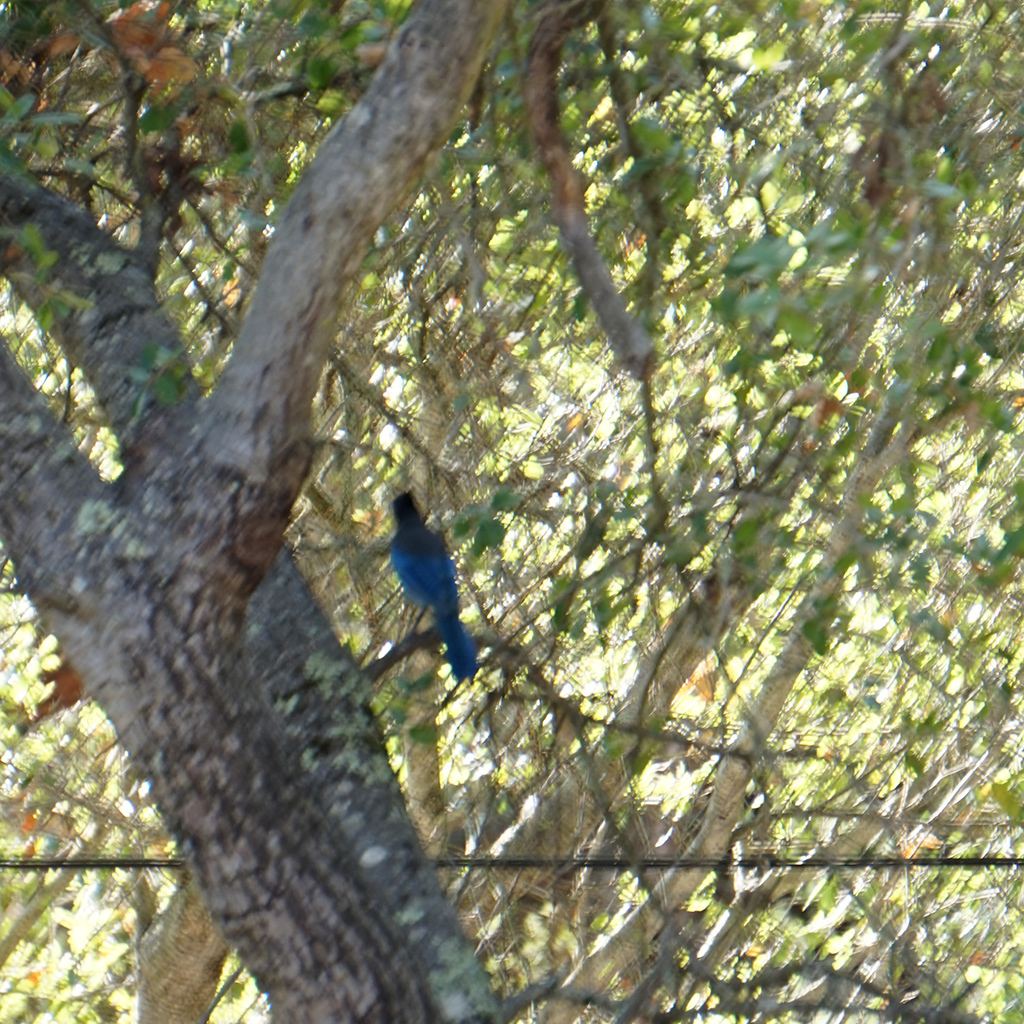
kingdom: Animalia
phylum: Chordata
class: Aves
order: Passeriformes
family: Corvidae
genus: Cyanocitta
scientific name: Cyanocitta stelleri
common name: Steller's jay
